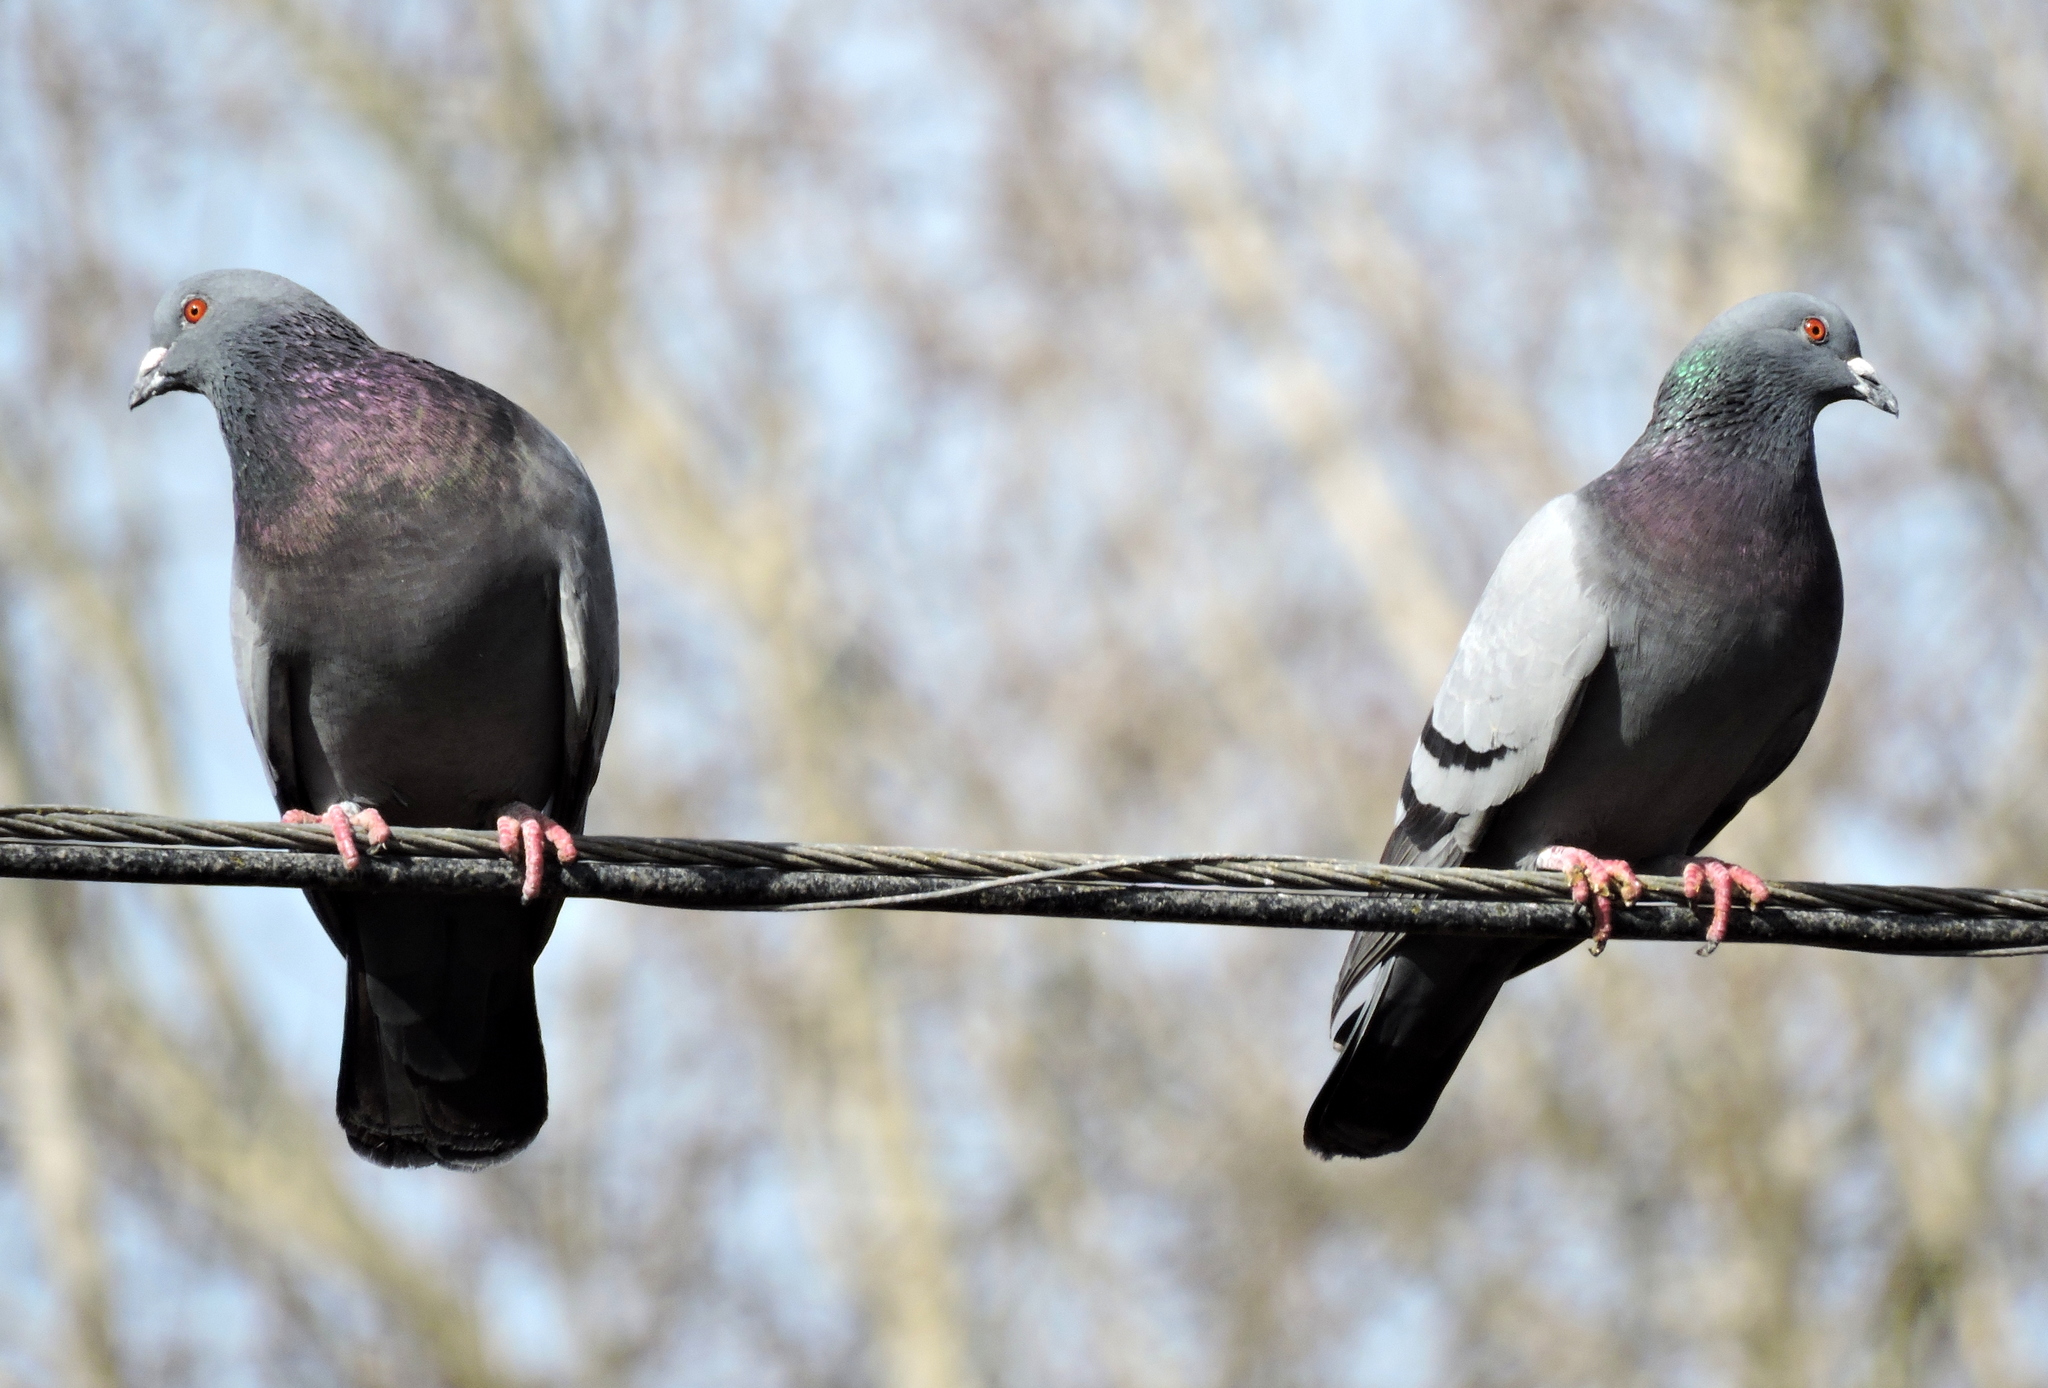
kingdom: Animalia
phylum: Chordata
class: Aves
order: Columbiformes
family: Columbidae
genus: Columba
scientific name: Columba livia
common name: Rock pigeon
